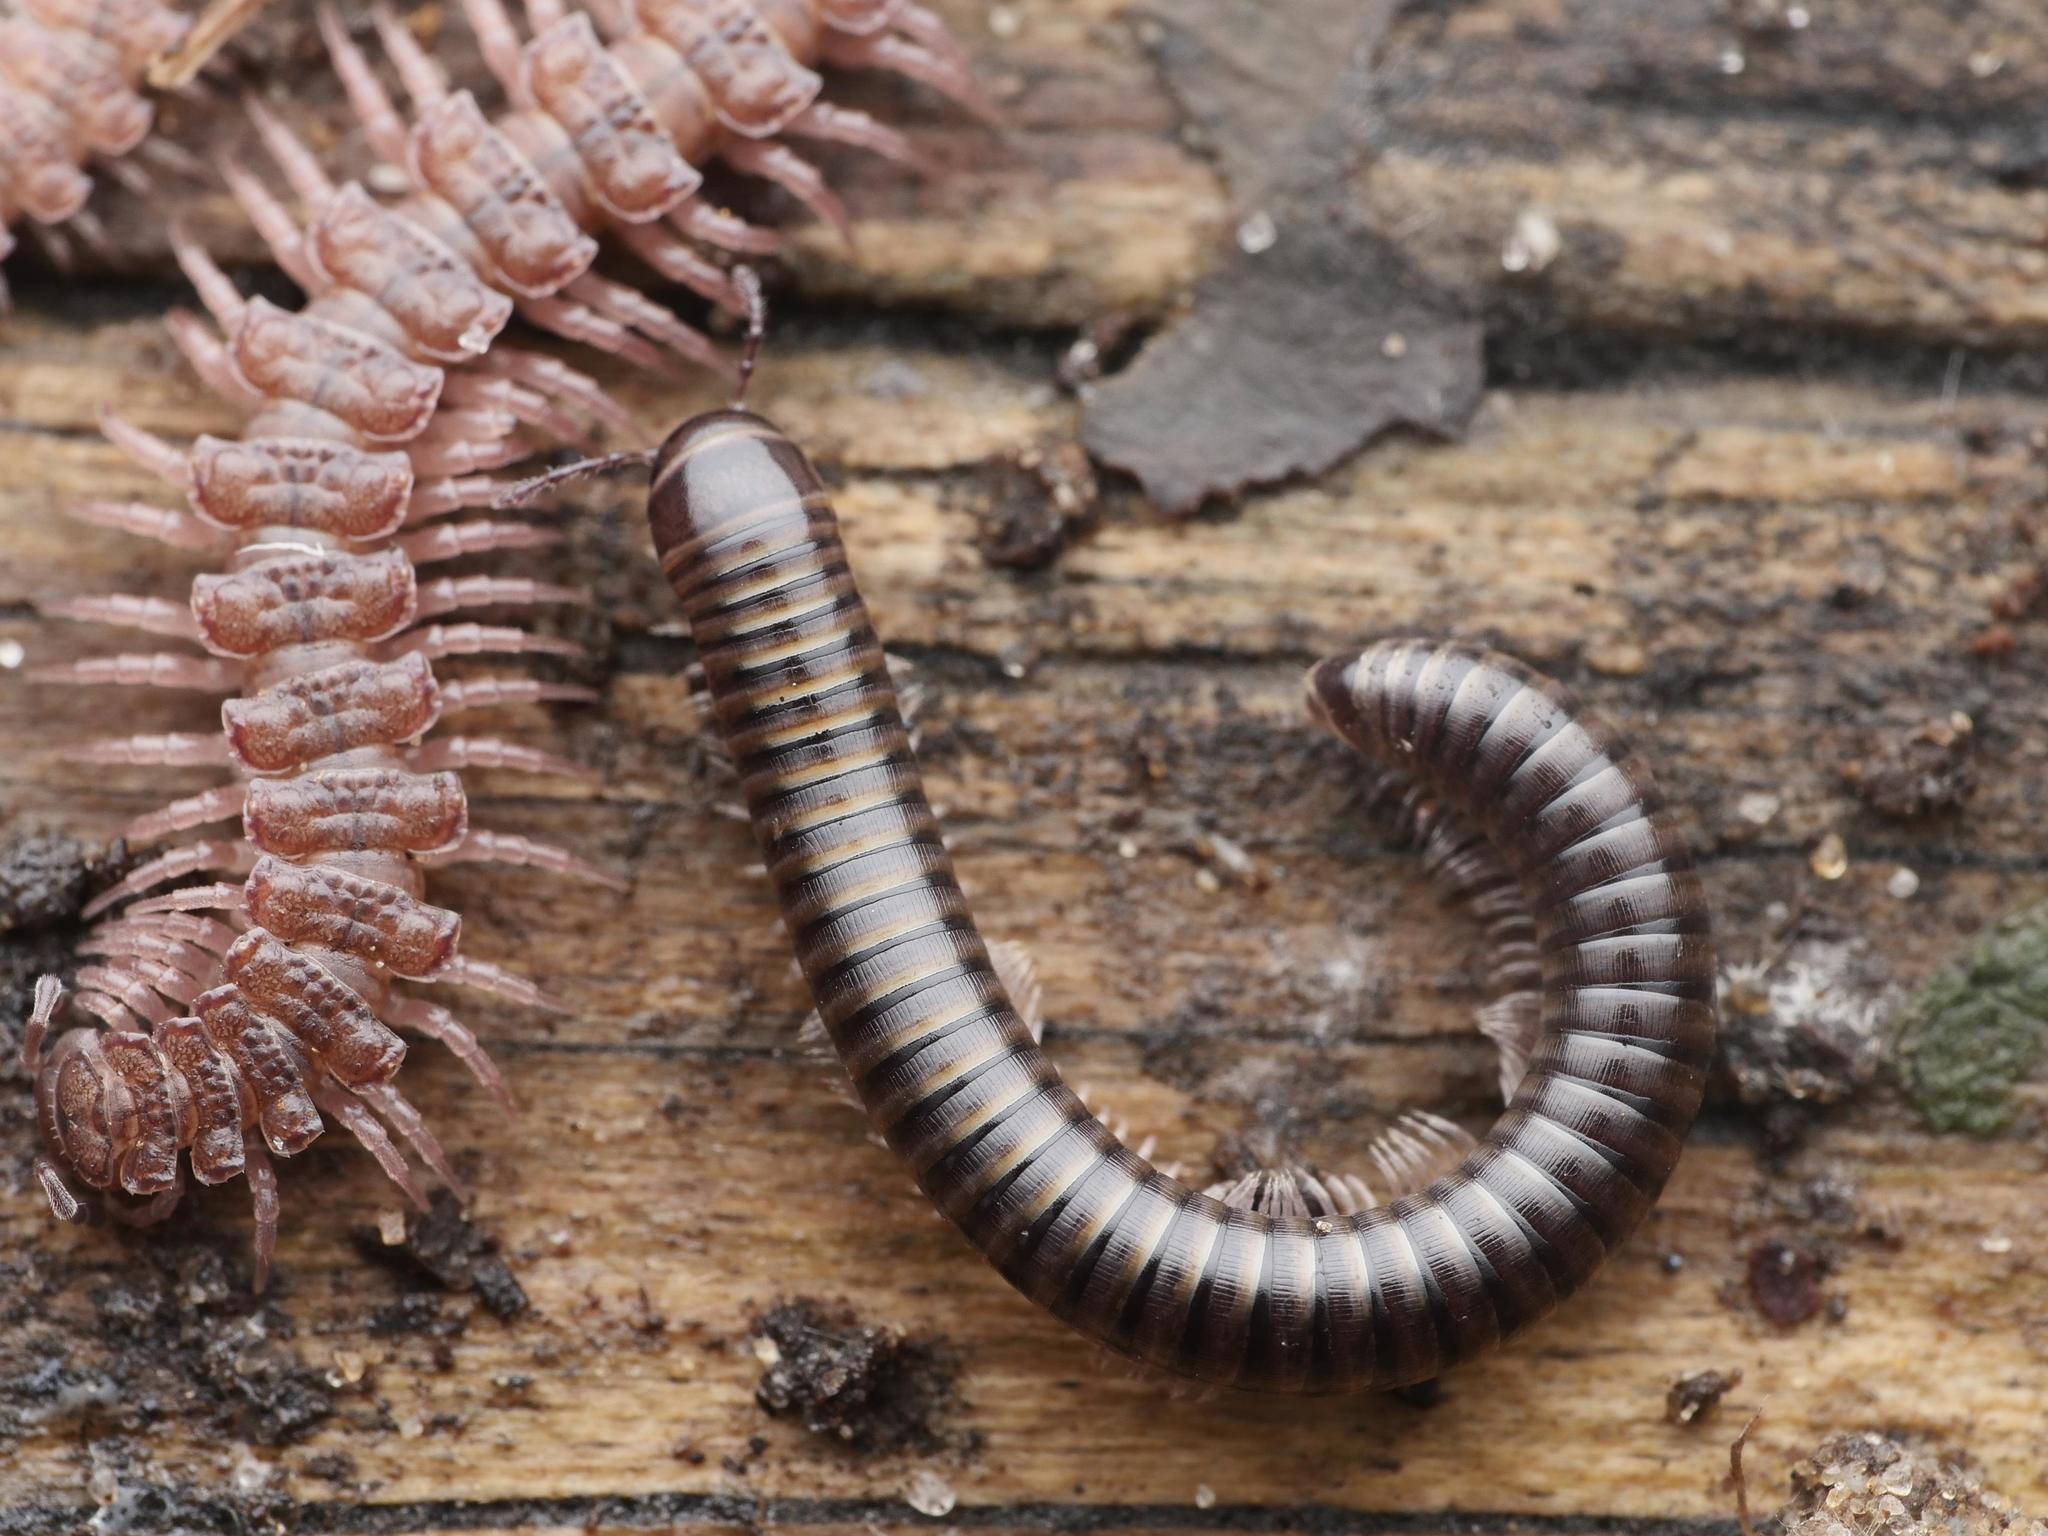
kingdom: Animalia
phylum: Arthropoda
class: Diplopoda
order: Julida
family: Julidae
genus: Cylindroiulus
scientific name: Cylindroiulus caeruleocinctus
